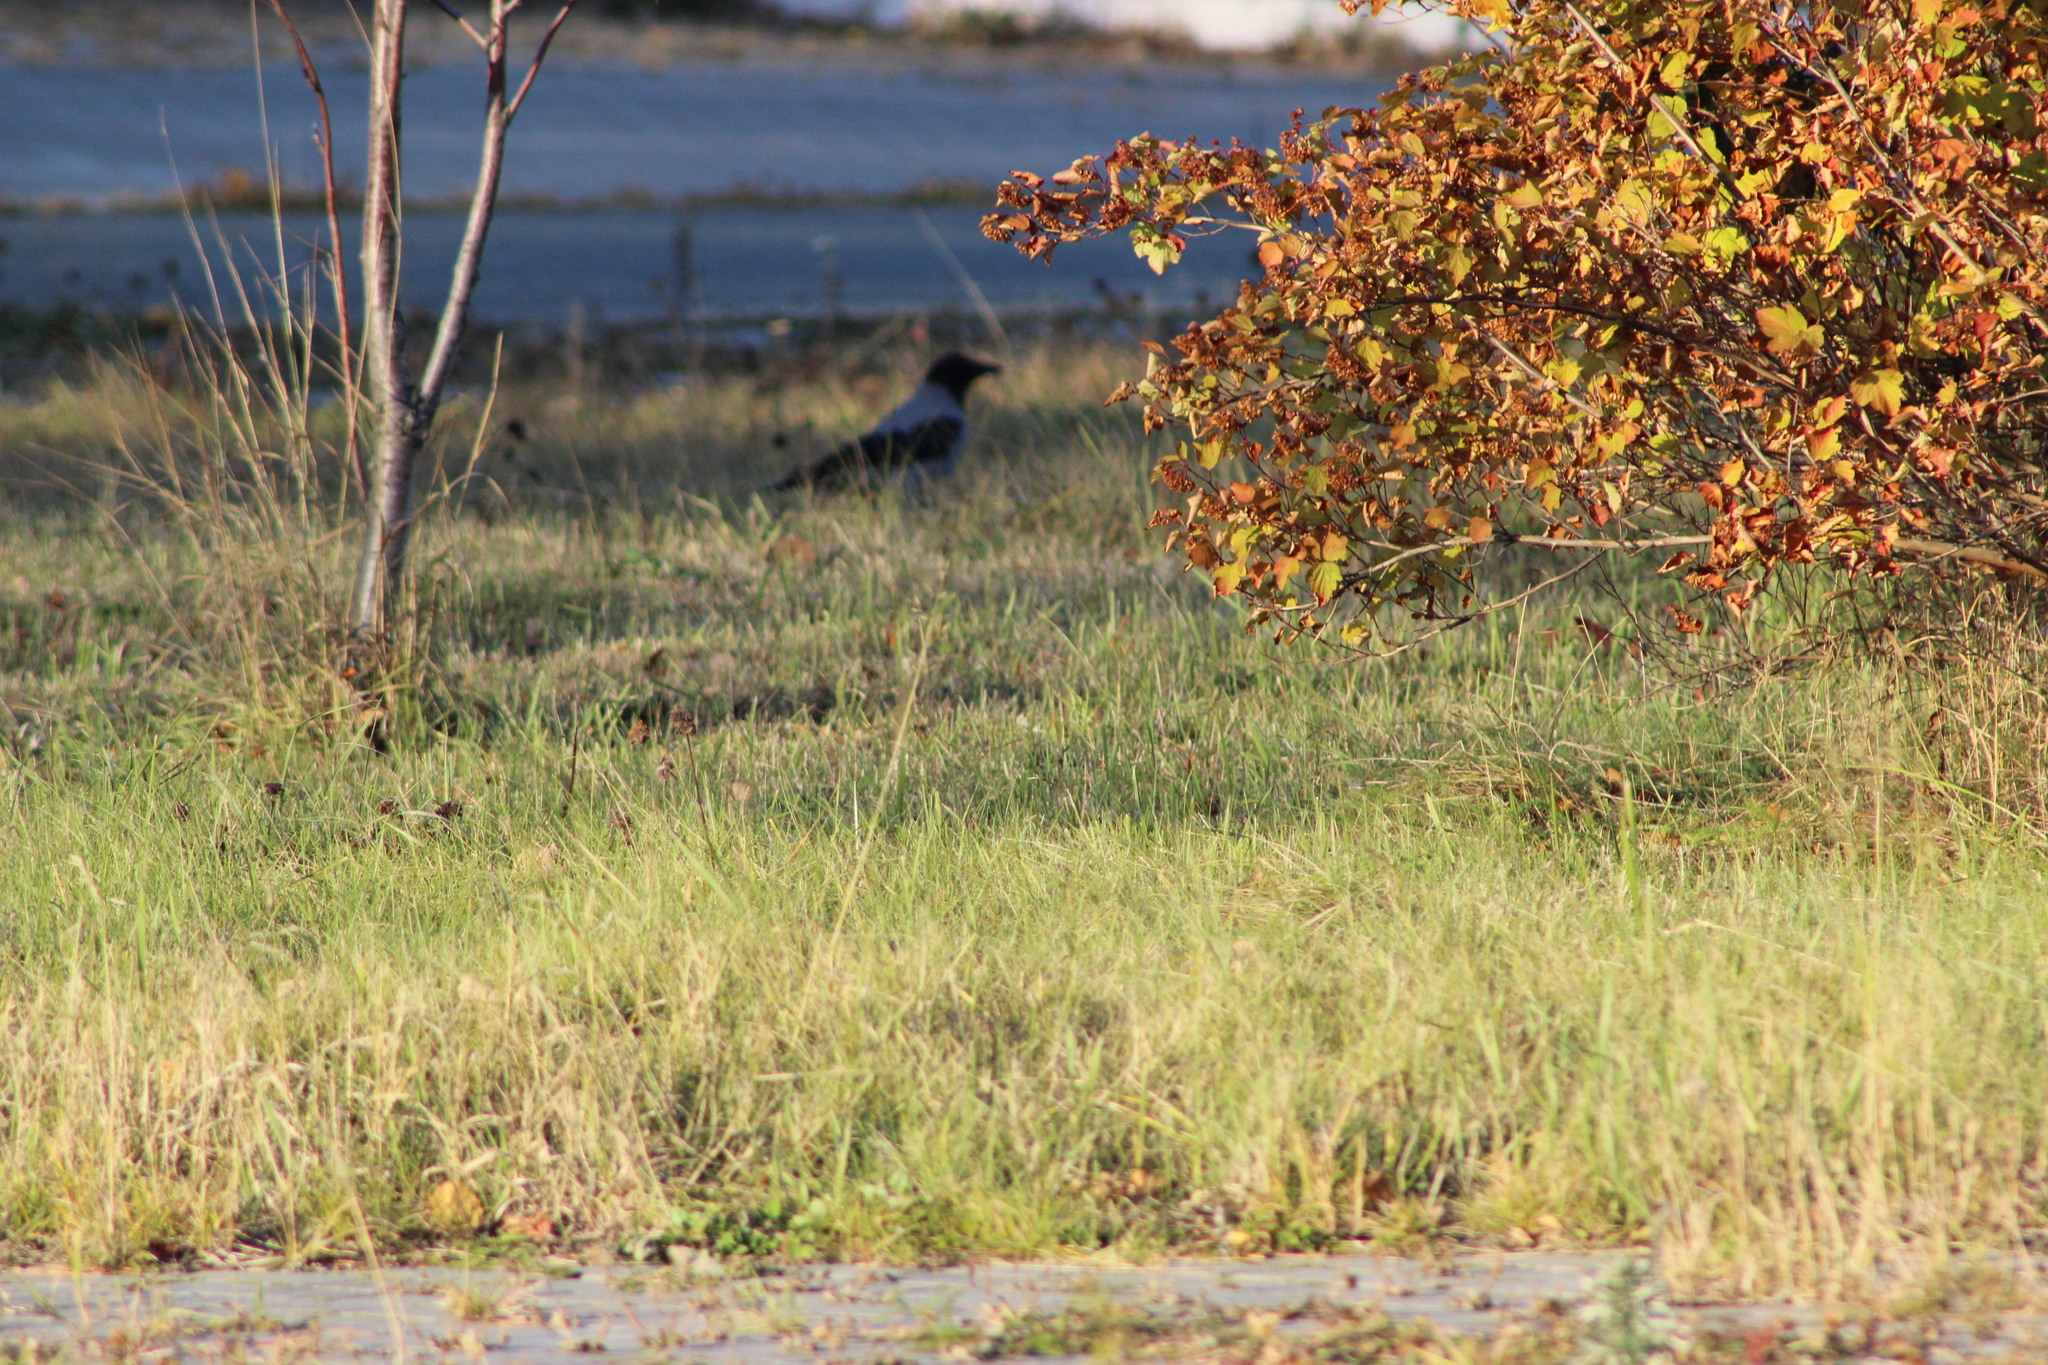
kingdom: Animalia
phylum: Chordata
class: Aves
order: Passeriformes
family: Corvidae
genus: Corvus
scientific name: Corvus cornix
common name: Hooded crow
